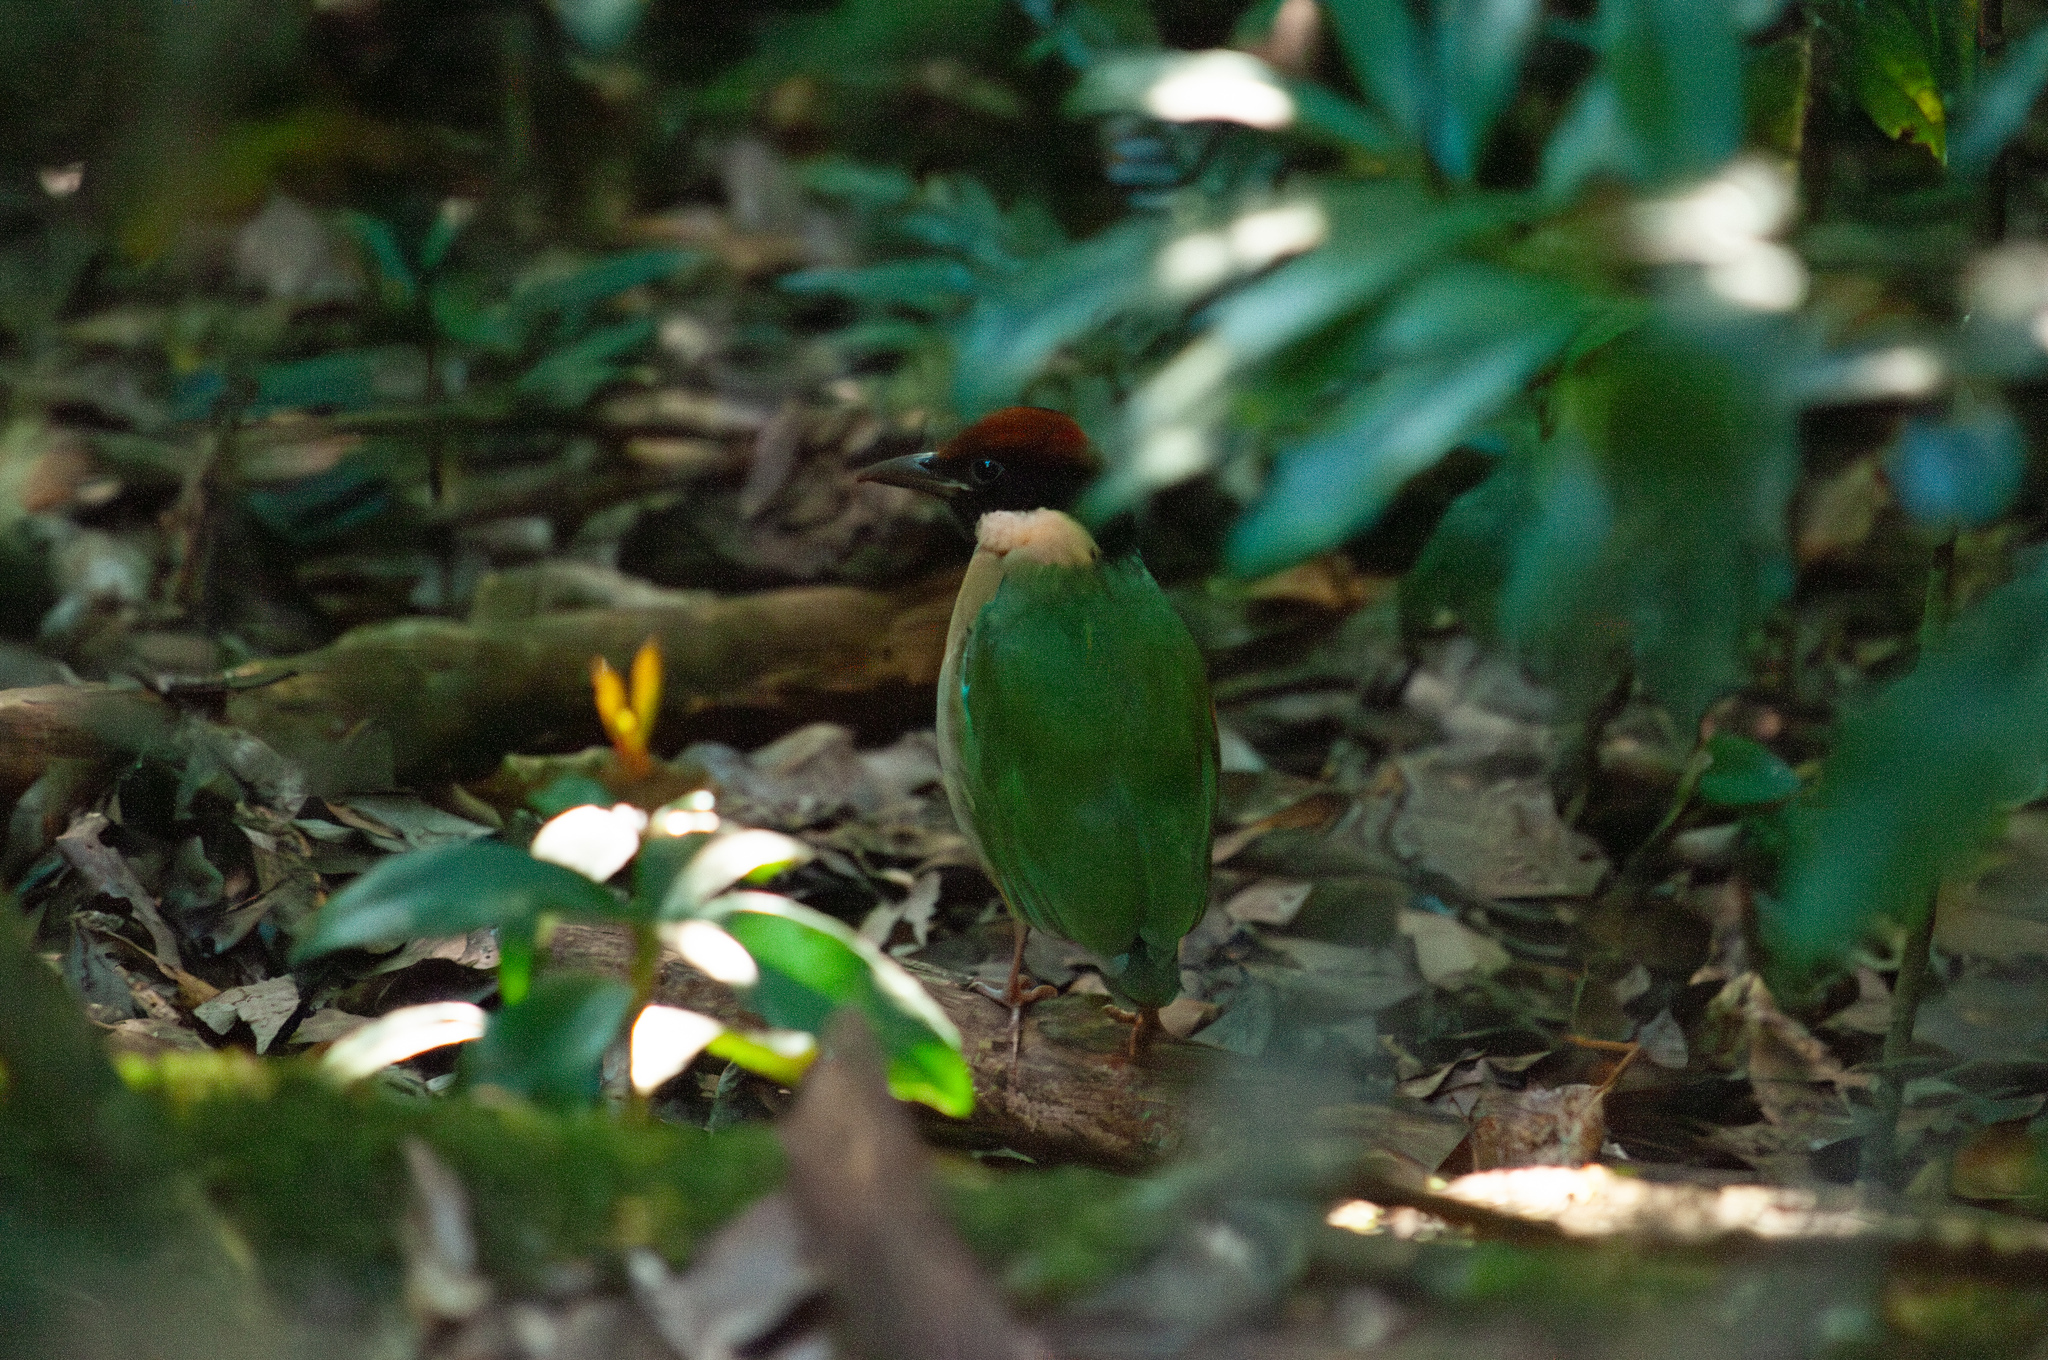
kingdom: Animalia
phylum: Chordata
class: Aves
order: Passeriformes
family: Pittidae
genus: Pitta
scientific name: Pitta versicolor
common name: Noisy pitta
